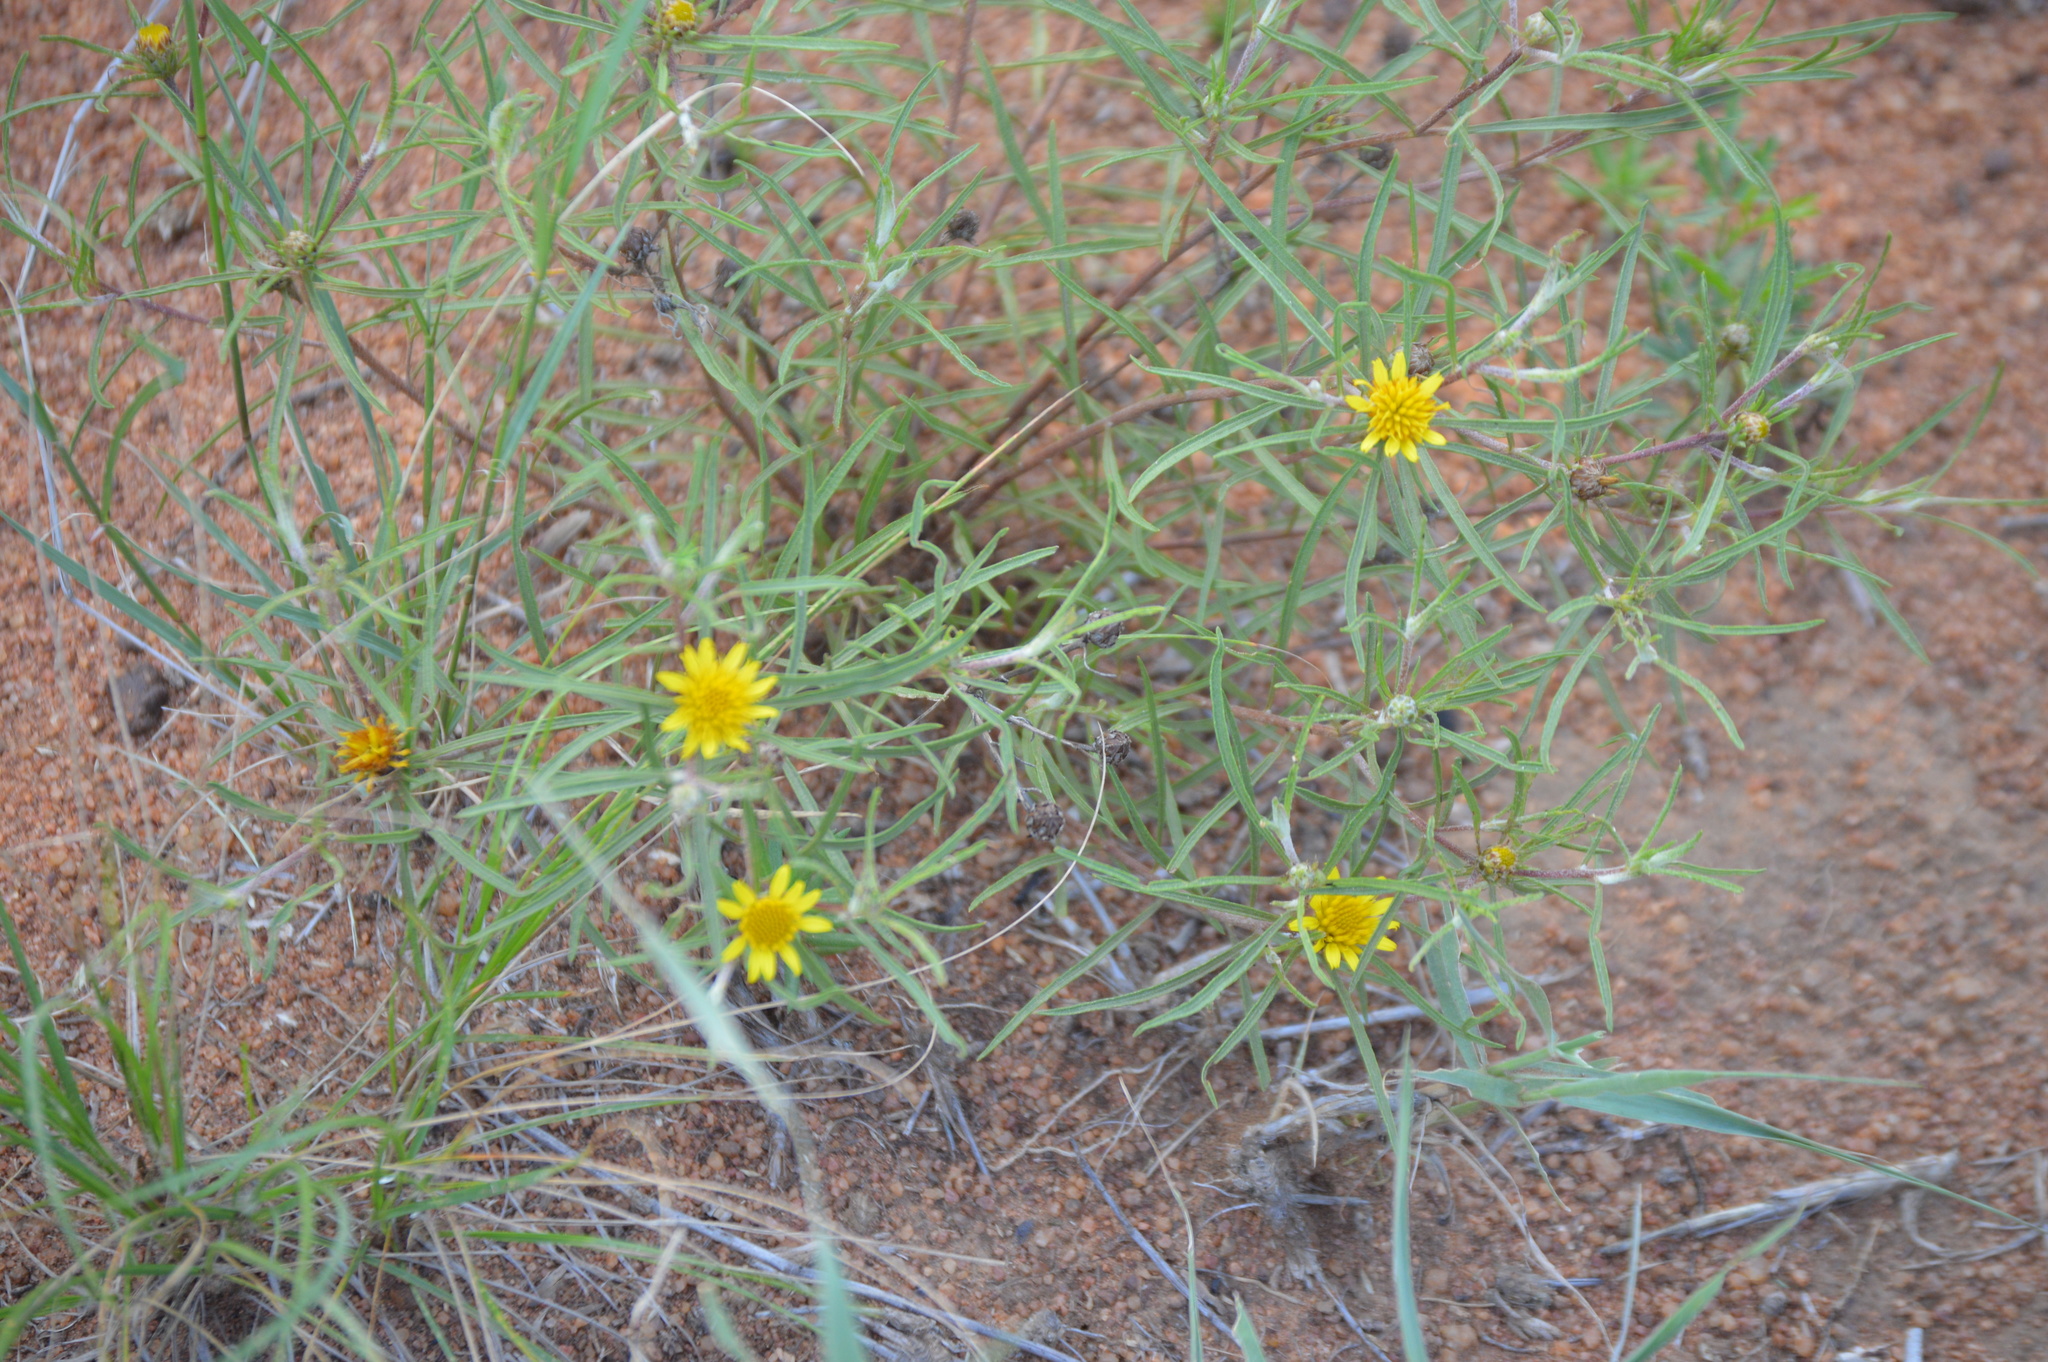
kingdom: Plantae
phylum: Tracheophyta
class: Magnoliopsida
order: Asterales
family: Asteraceae
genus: Geigeria
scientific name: Geigeria burkei
